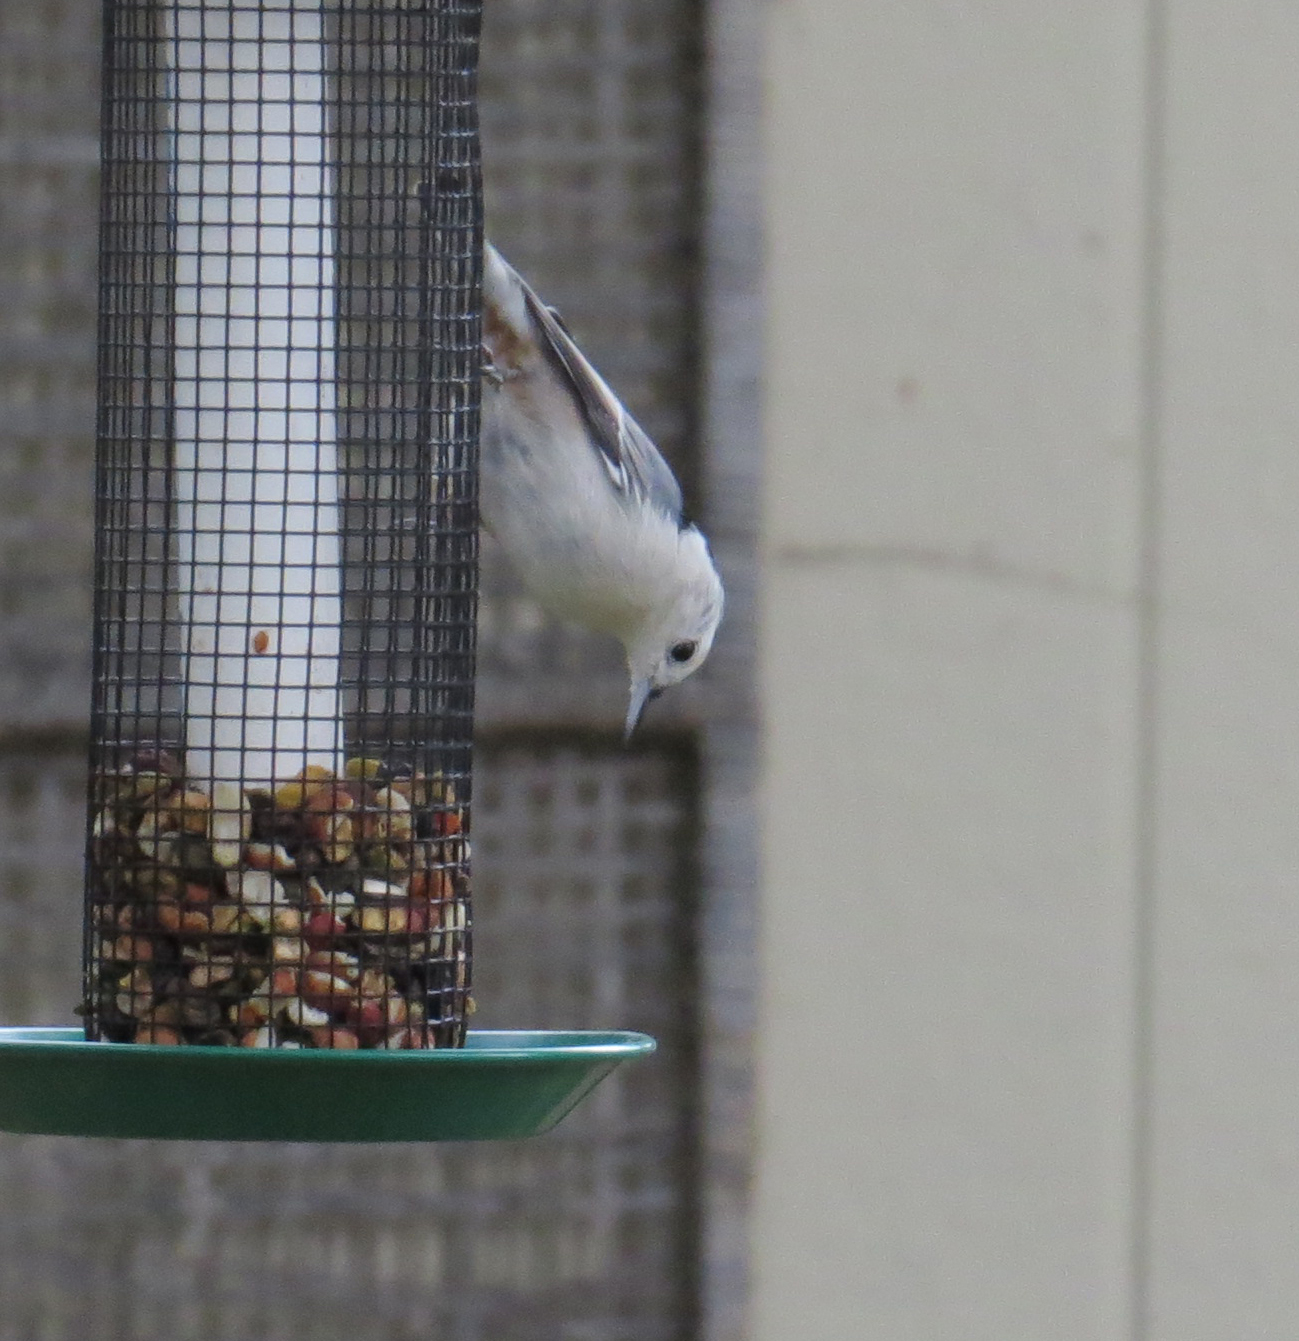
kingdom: Animalia
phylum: Chordata
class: Aves
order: Passeriformes
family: Sittidae
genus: Sitta
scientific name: Sitta carolinensis
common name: White-breasted nuthatch
